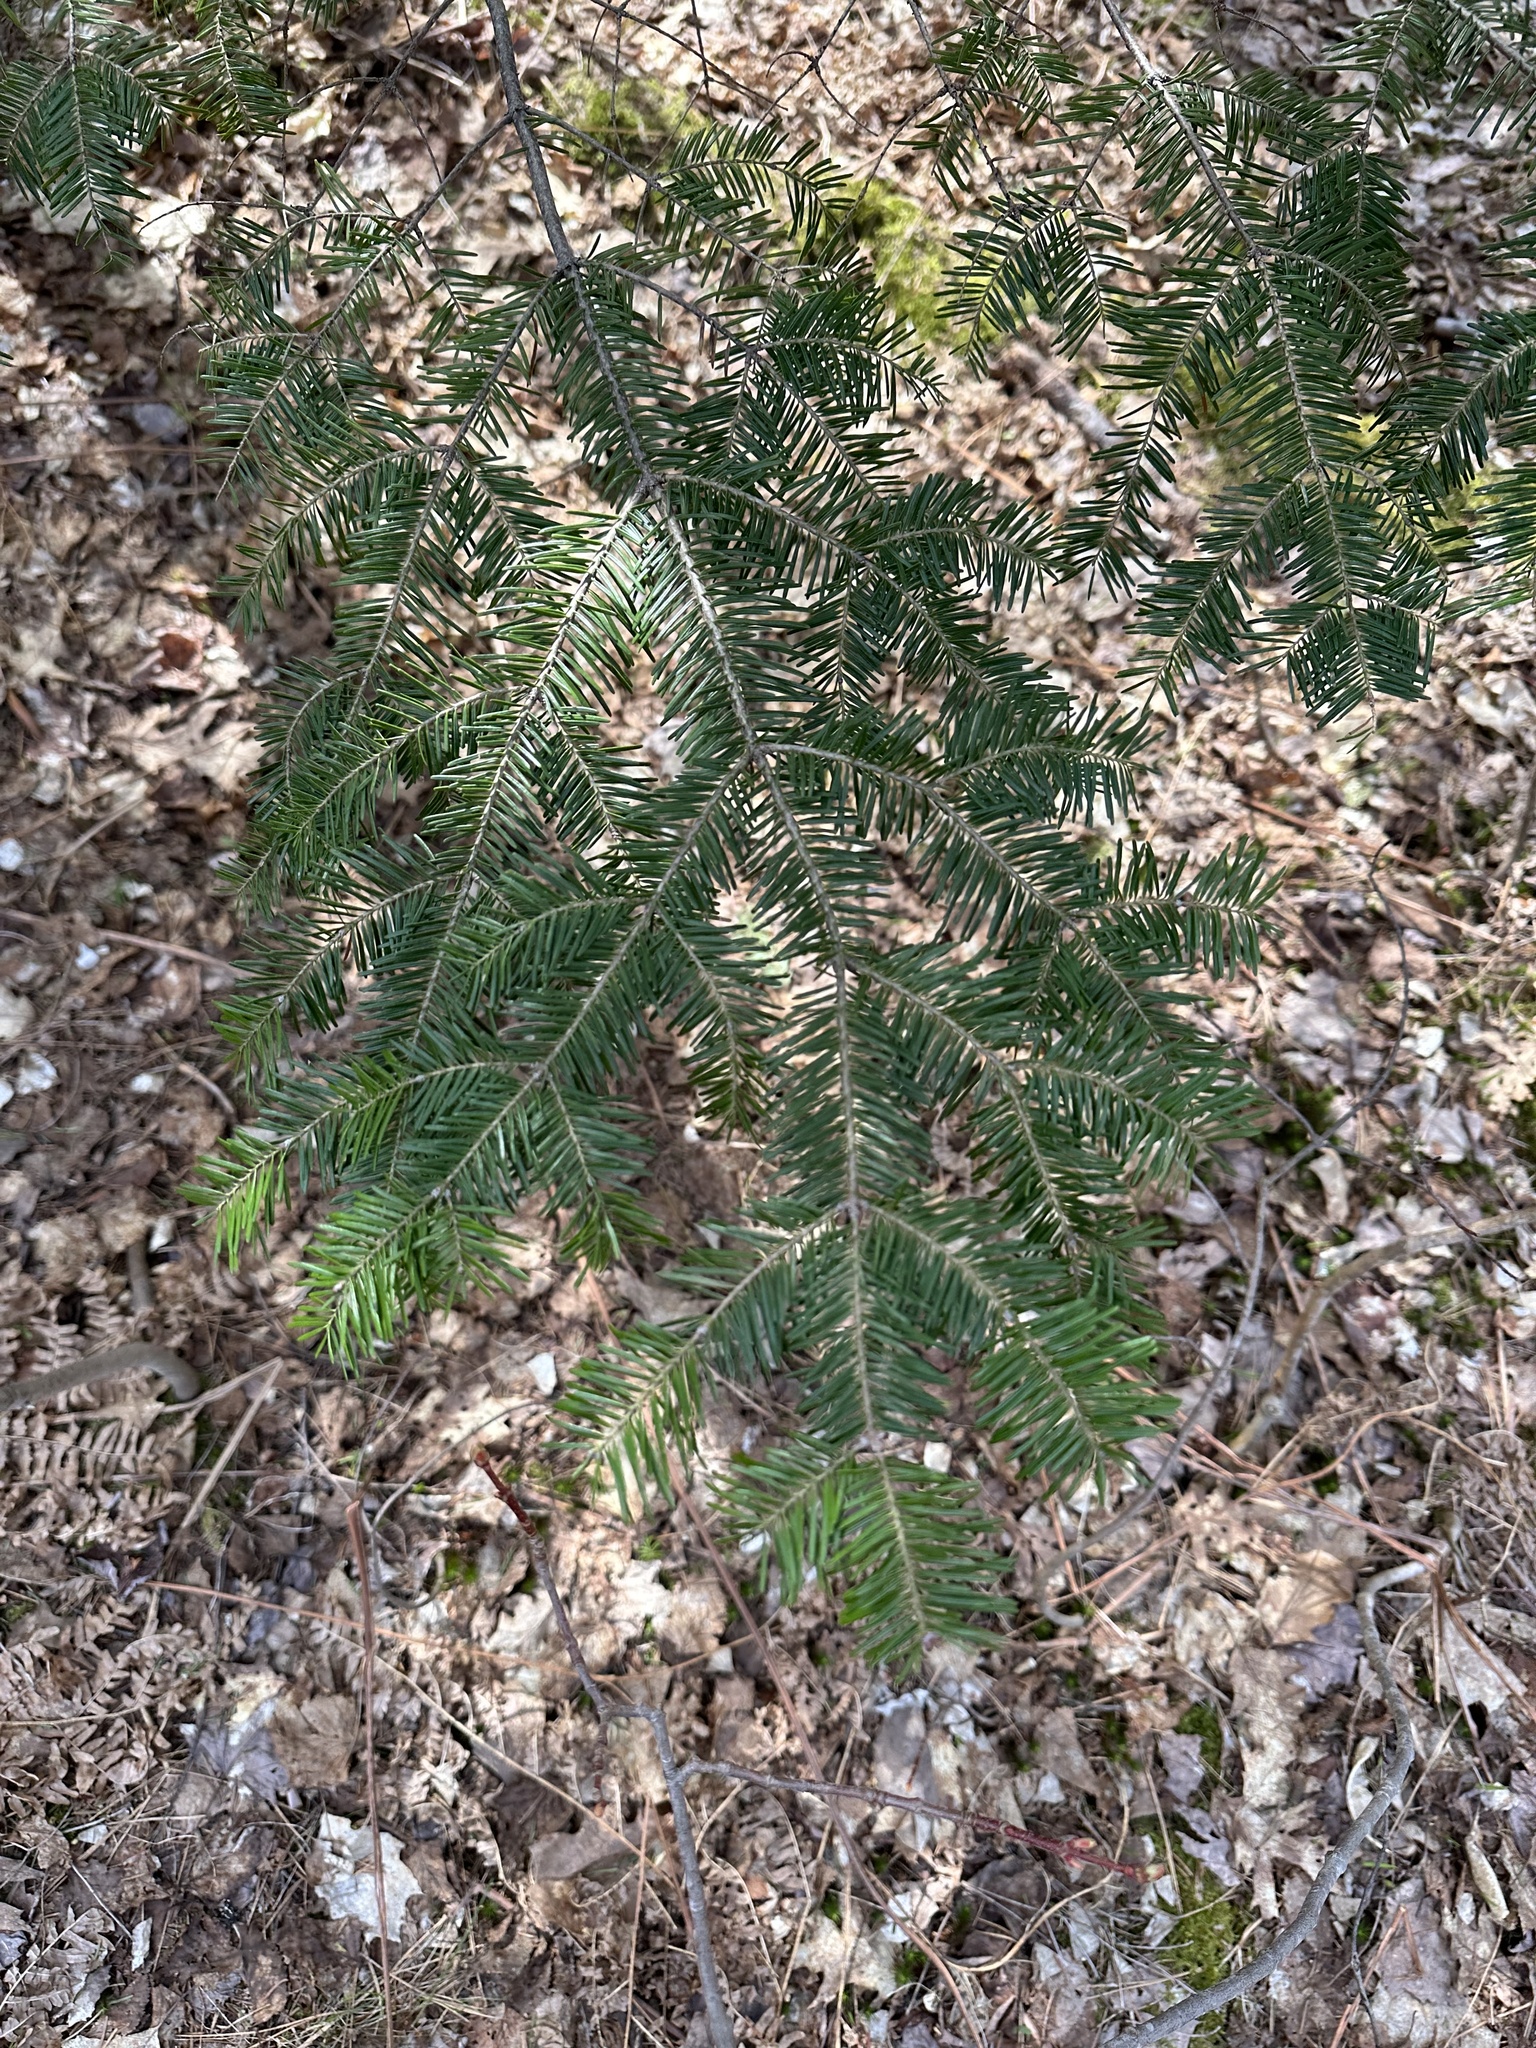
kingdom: Plantae
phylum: Tracheophyta
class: Pinopsida
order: Pinales
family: Pinaceae
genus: Abies
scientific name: Abies balsamea
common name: Balsam fir
